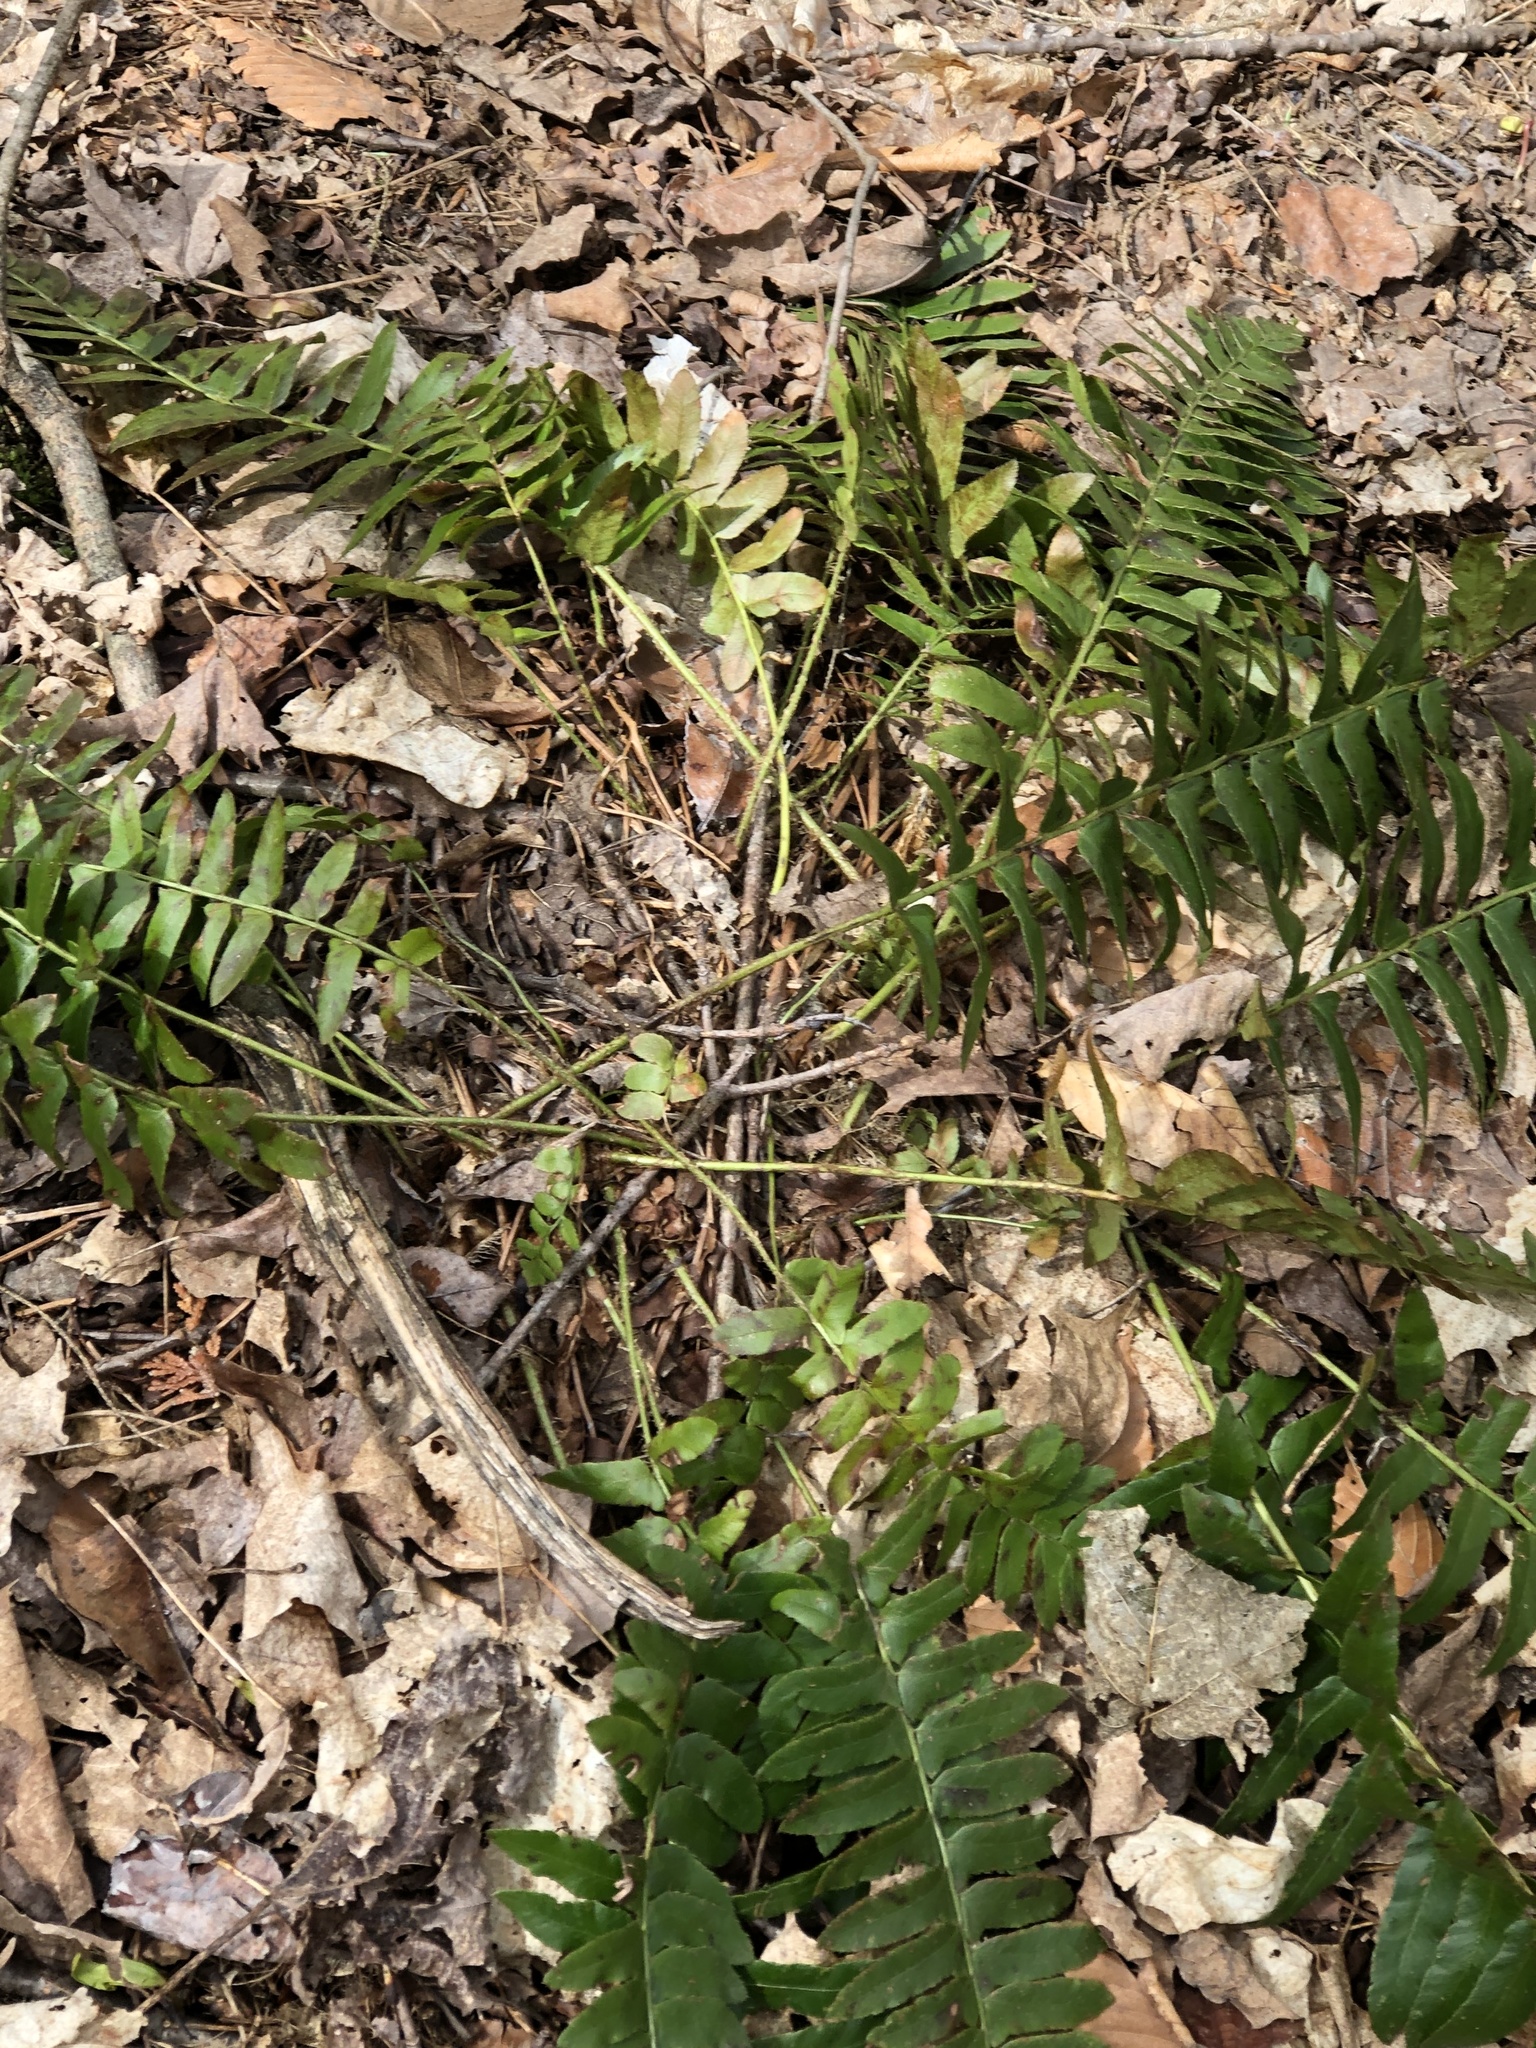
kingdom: Plantae
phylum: Tracheophyta
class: Polypodiopsida
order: Polypodiales
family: Dryopteridaceae
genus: Polystichum
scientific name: Polystichum acrostichoides
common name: Christmas fern
